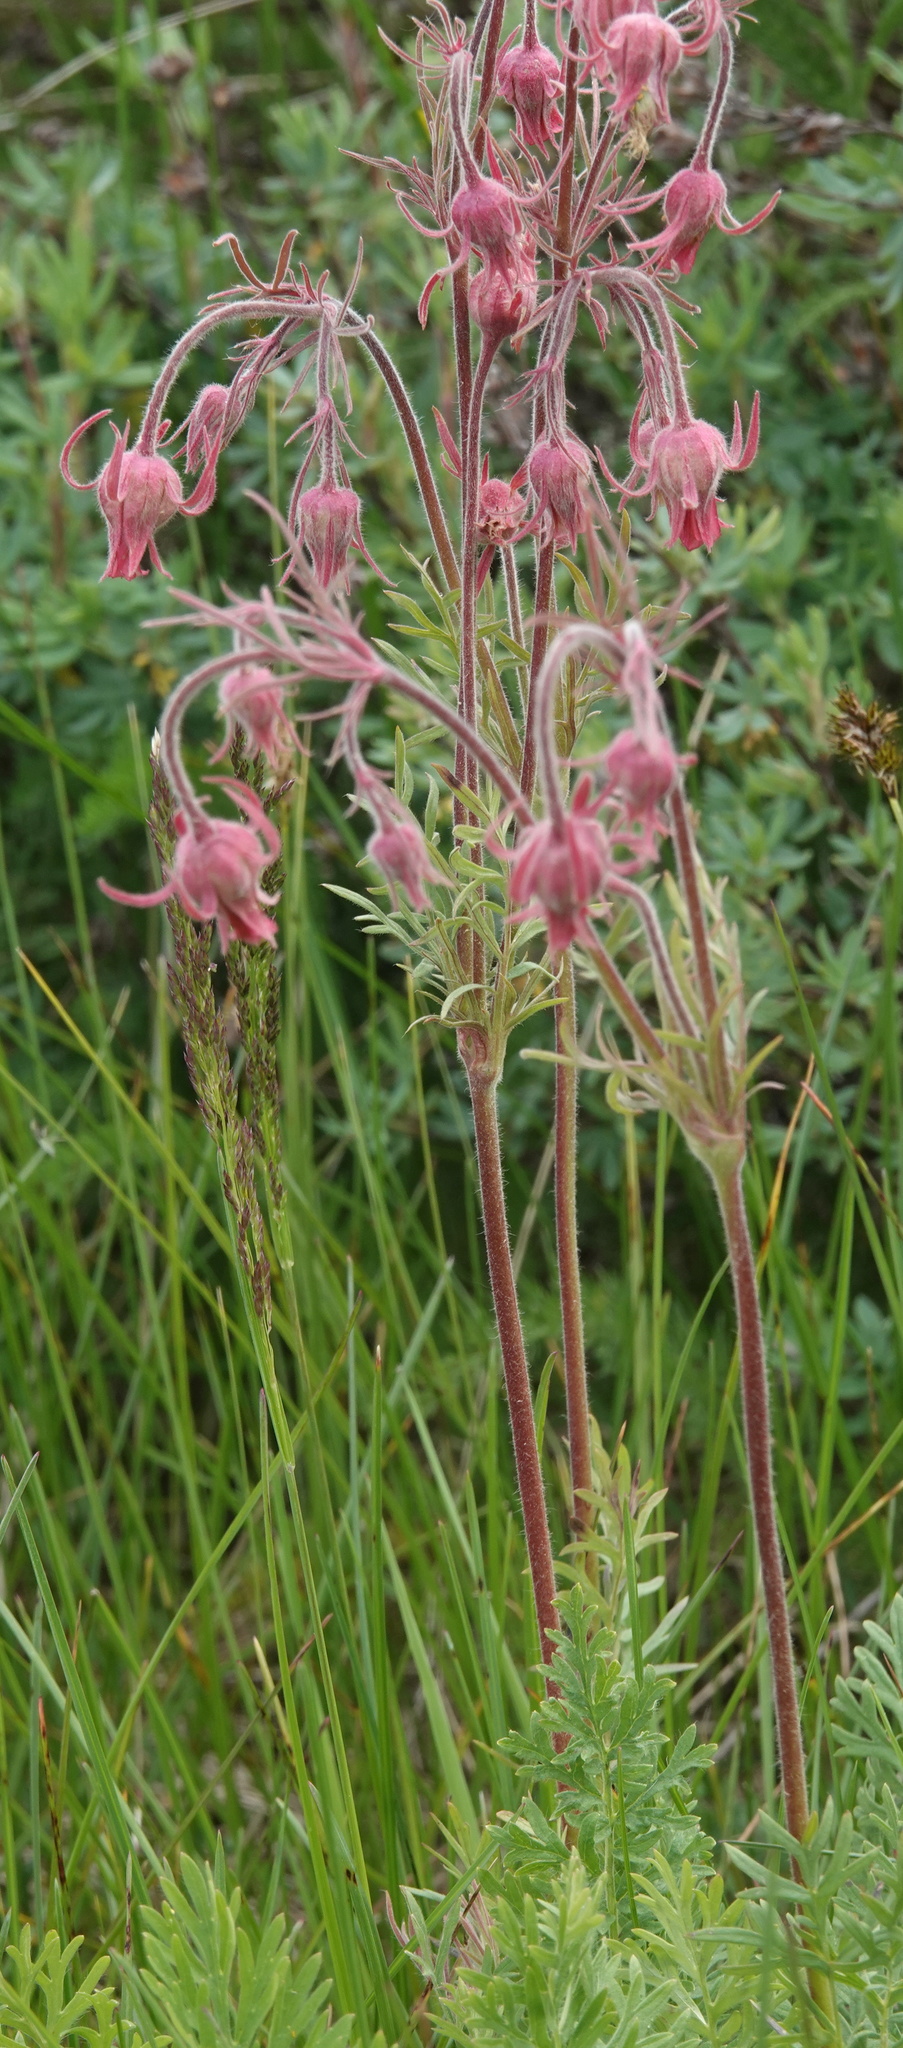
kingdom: Plantae
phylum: Tracheophyta
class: Magnoliopsida
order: Rosales
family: Rosaceae
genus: Geum
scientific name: Geum triflorum
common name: Old man's whiskers
